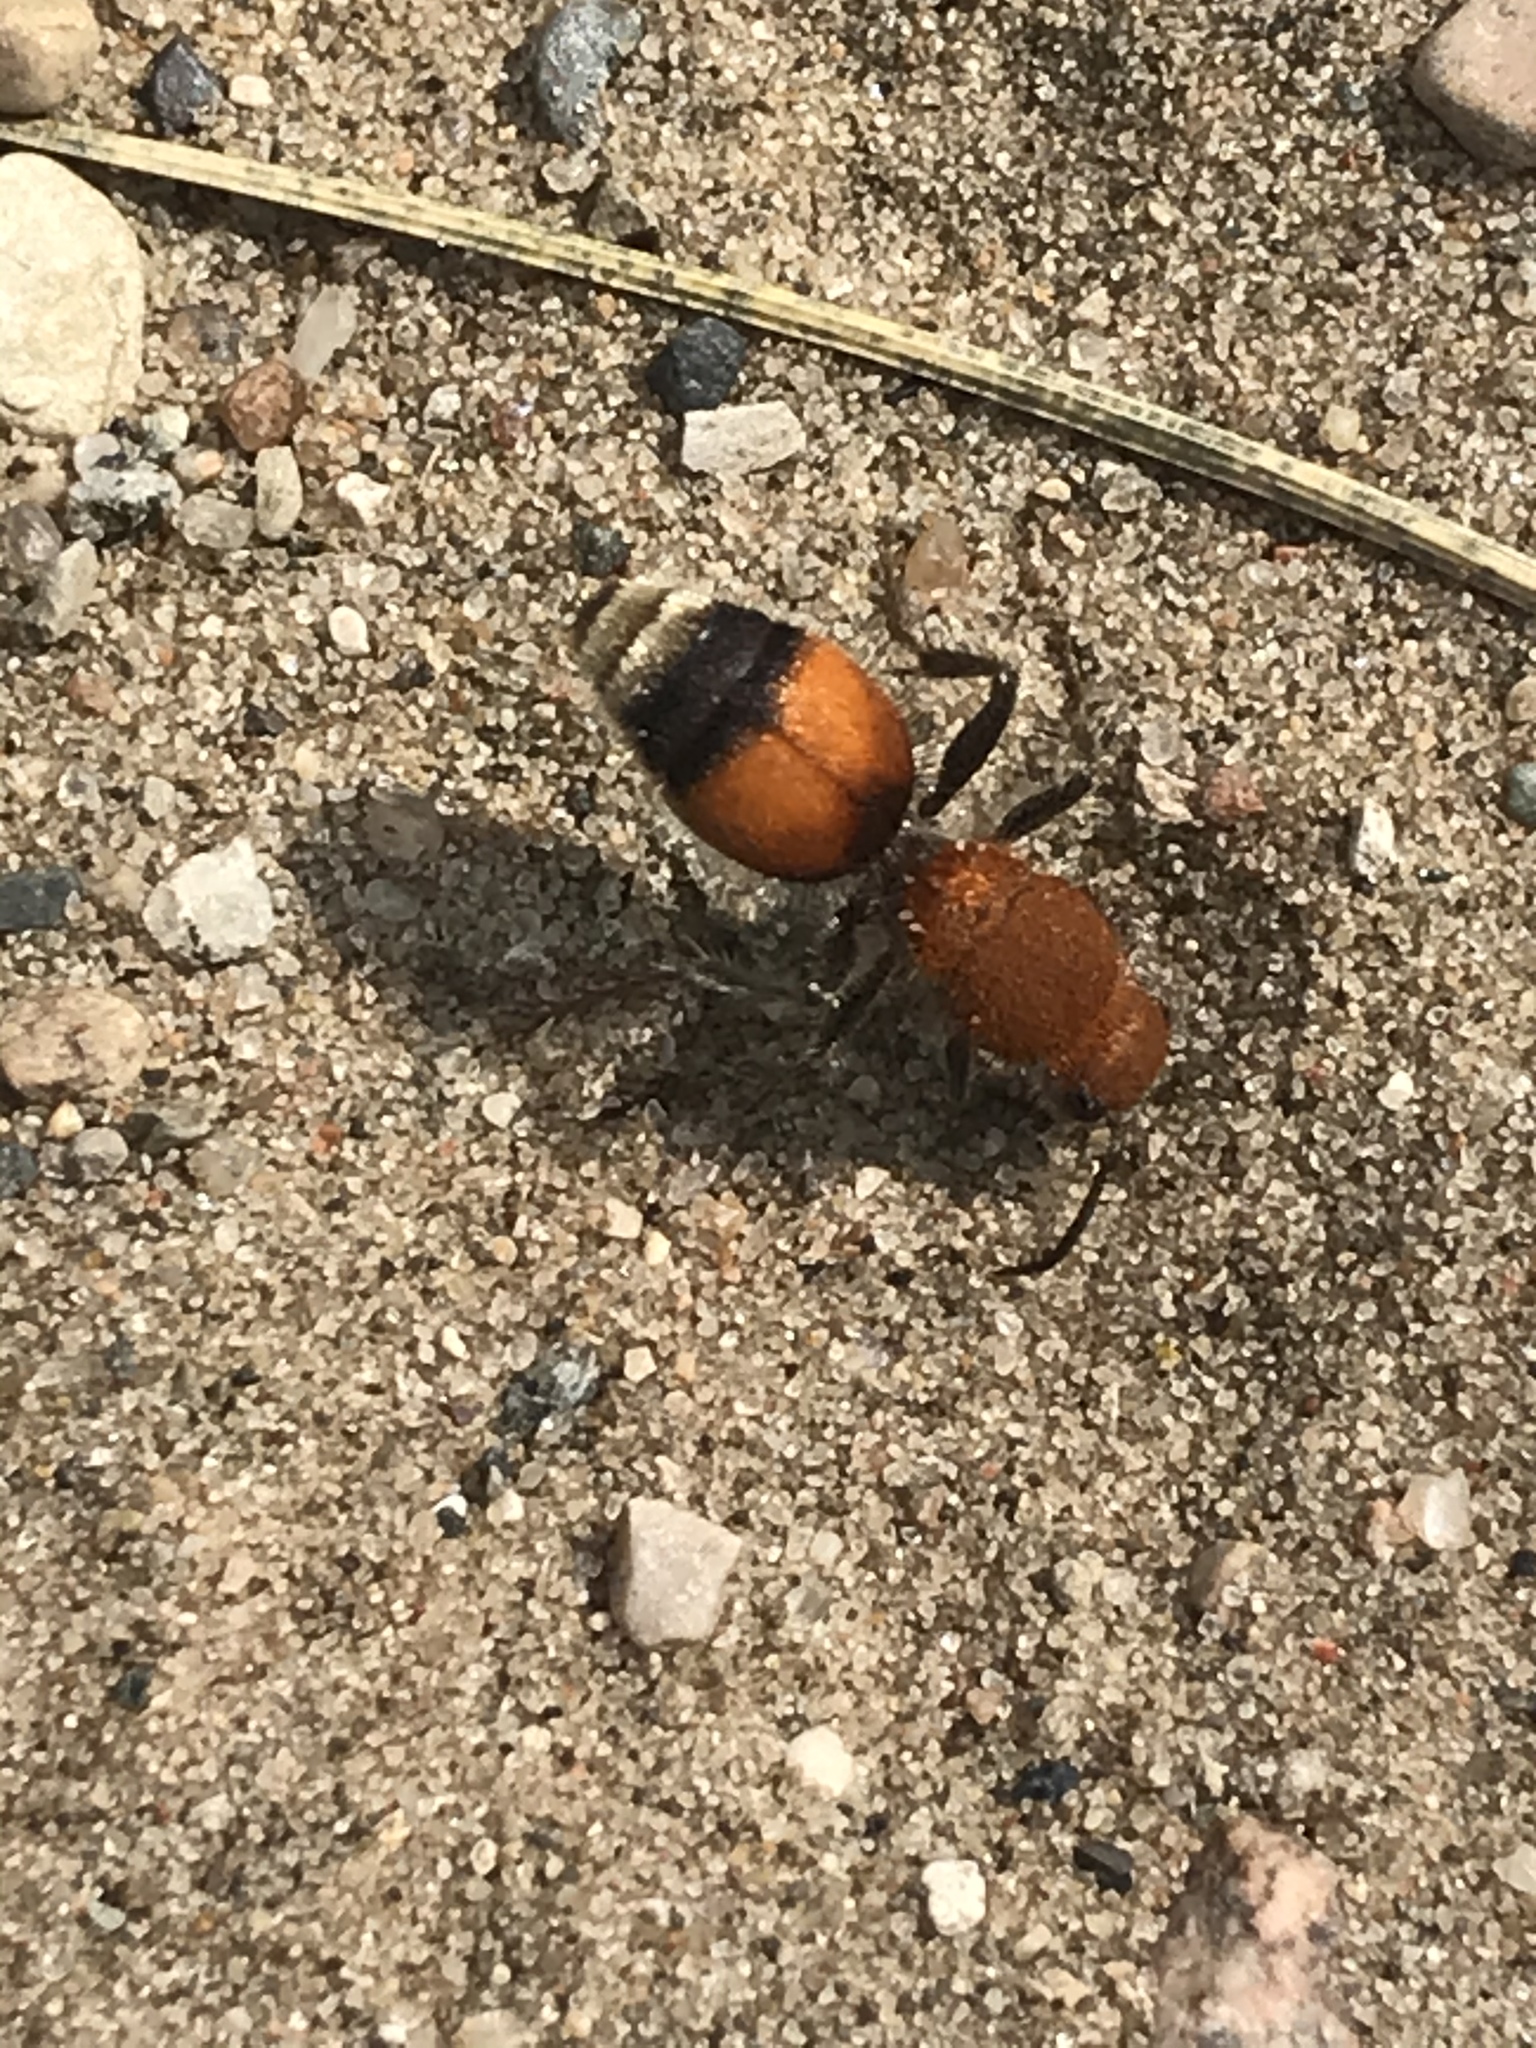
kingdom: Animalia
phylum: Arthropoda
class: Insecta
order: Hymenoptera
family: Mutillidae
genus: Dasymutilla
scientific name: Dasymutilla
